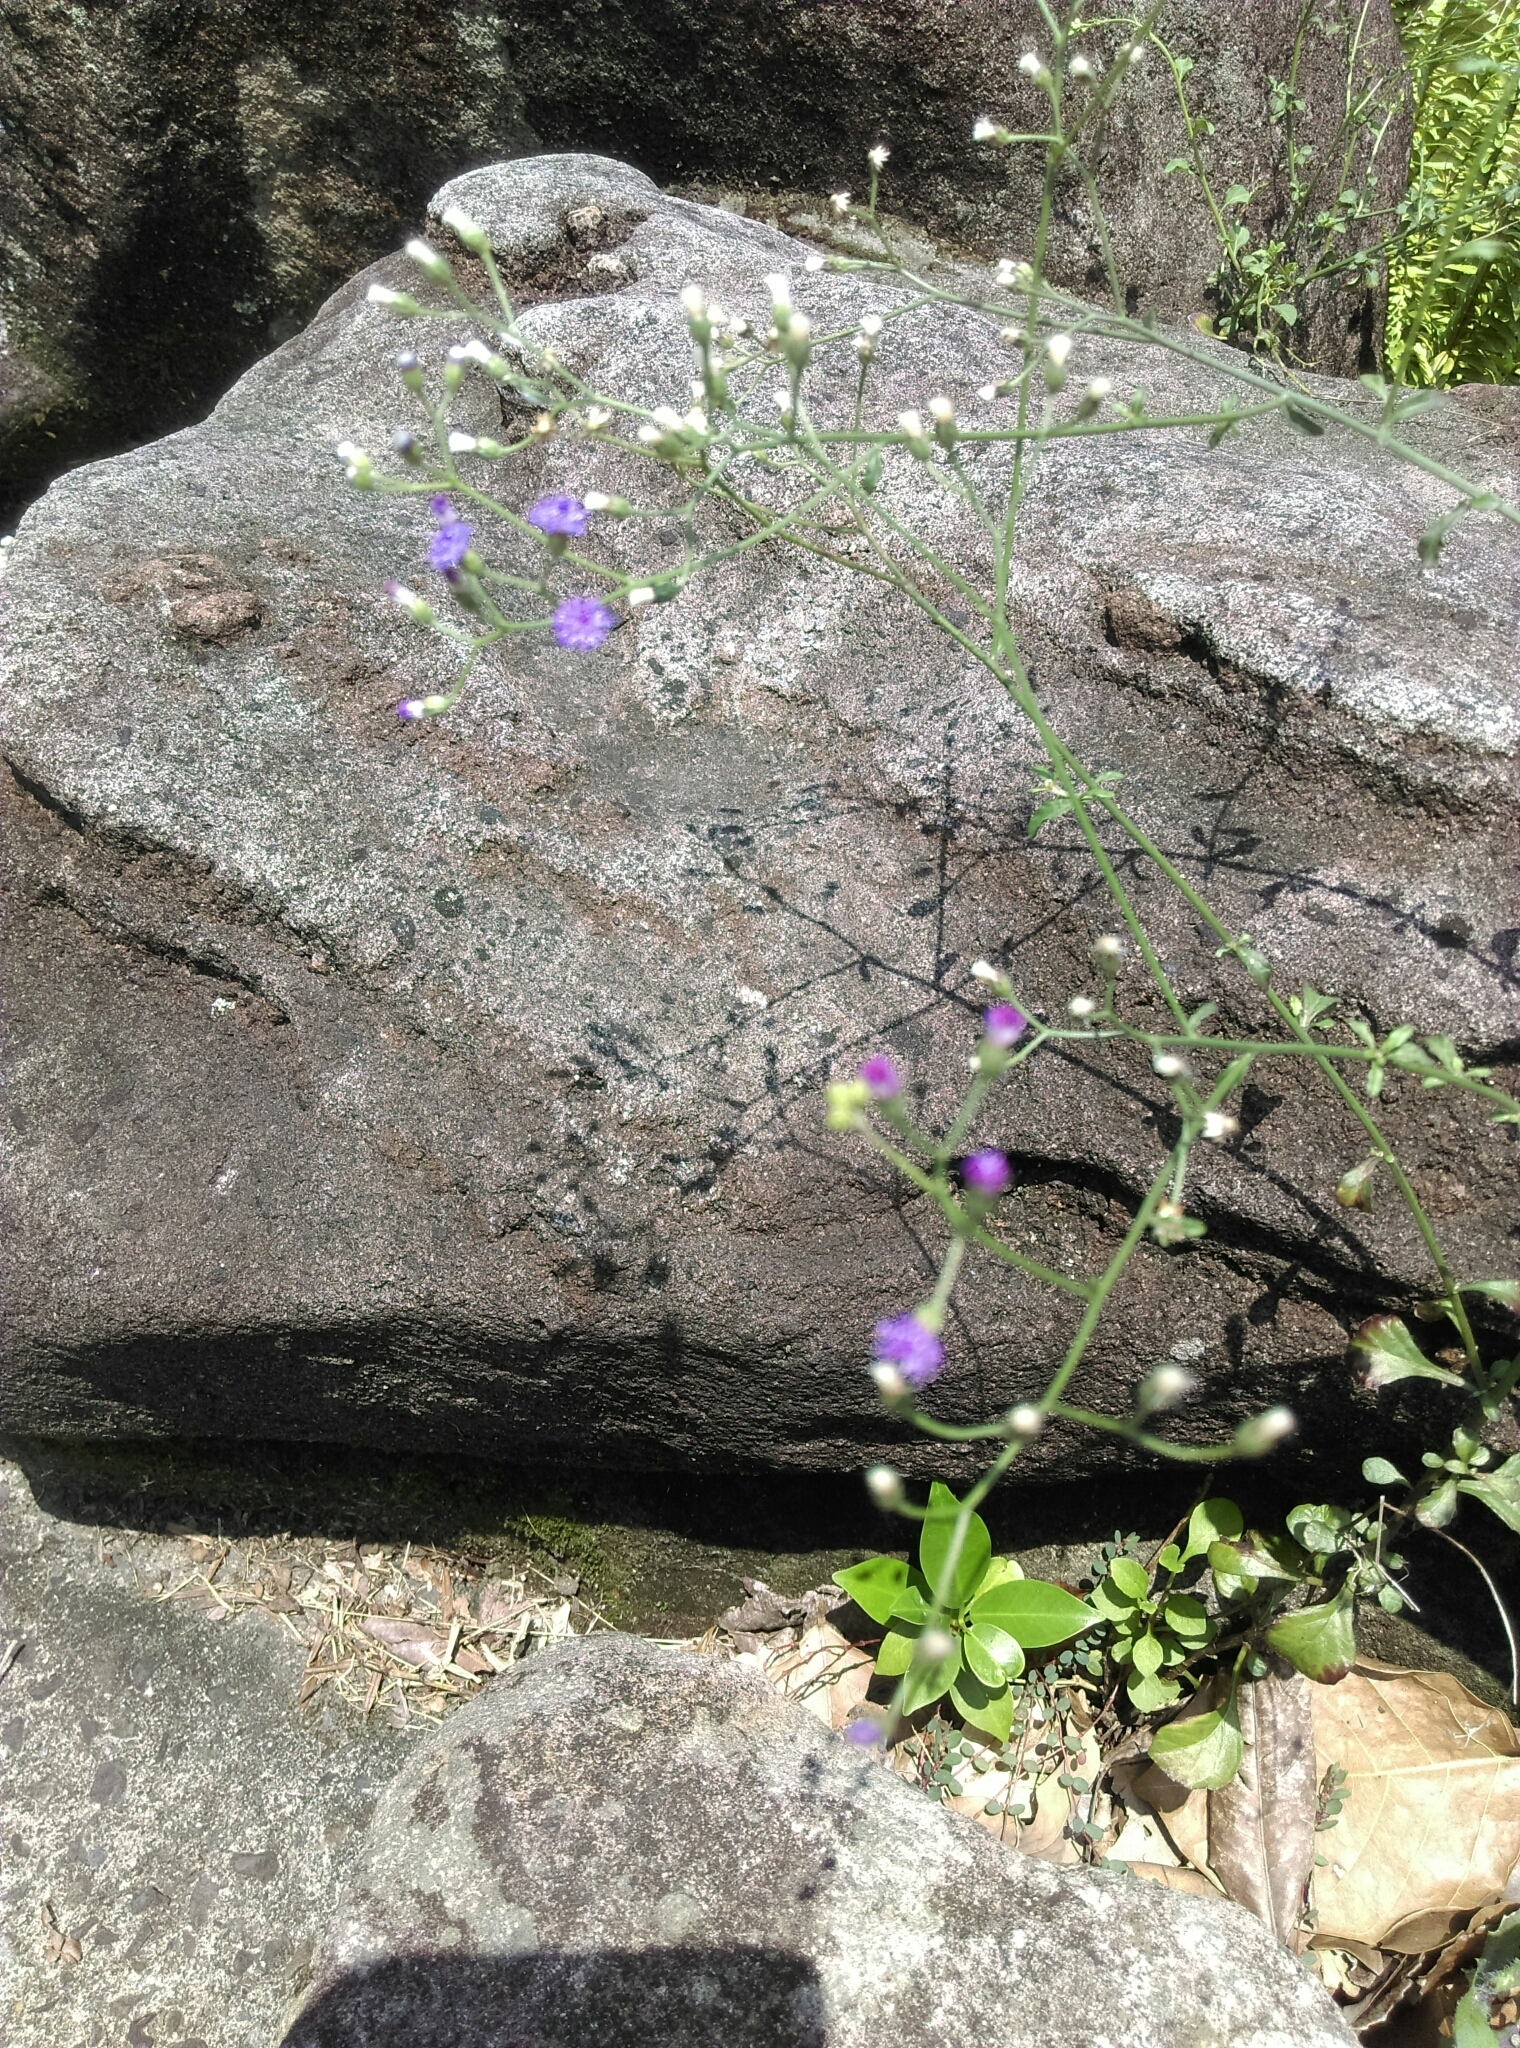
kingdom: Plantae
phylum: Tracheophyta
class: Magnoliopsida
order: Asterales
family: Asteraceae
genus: Cyanthillium
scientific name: Cyanthillium cinereum
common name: Little ironweed
